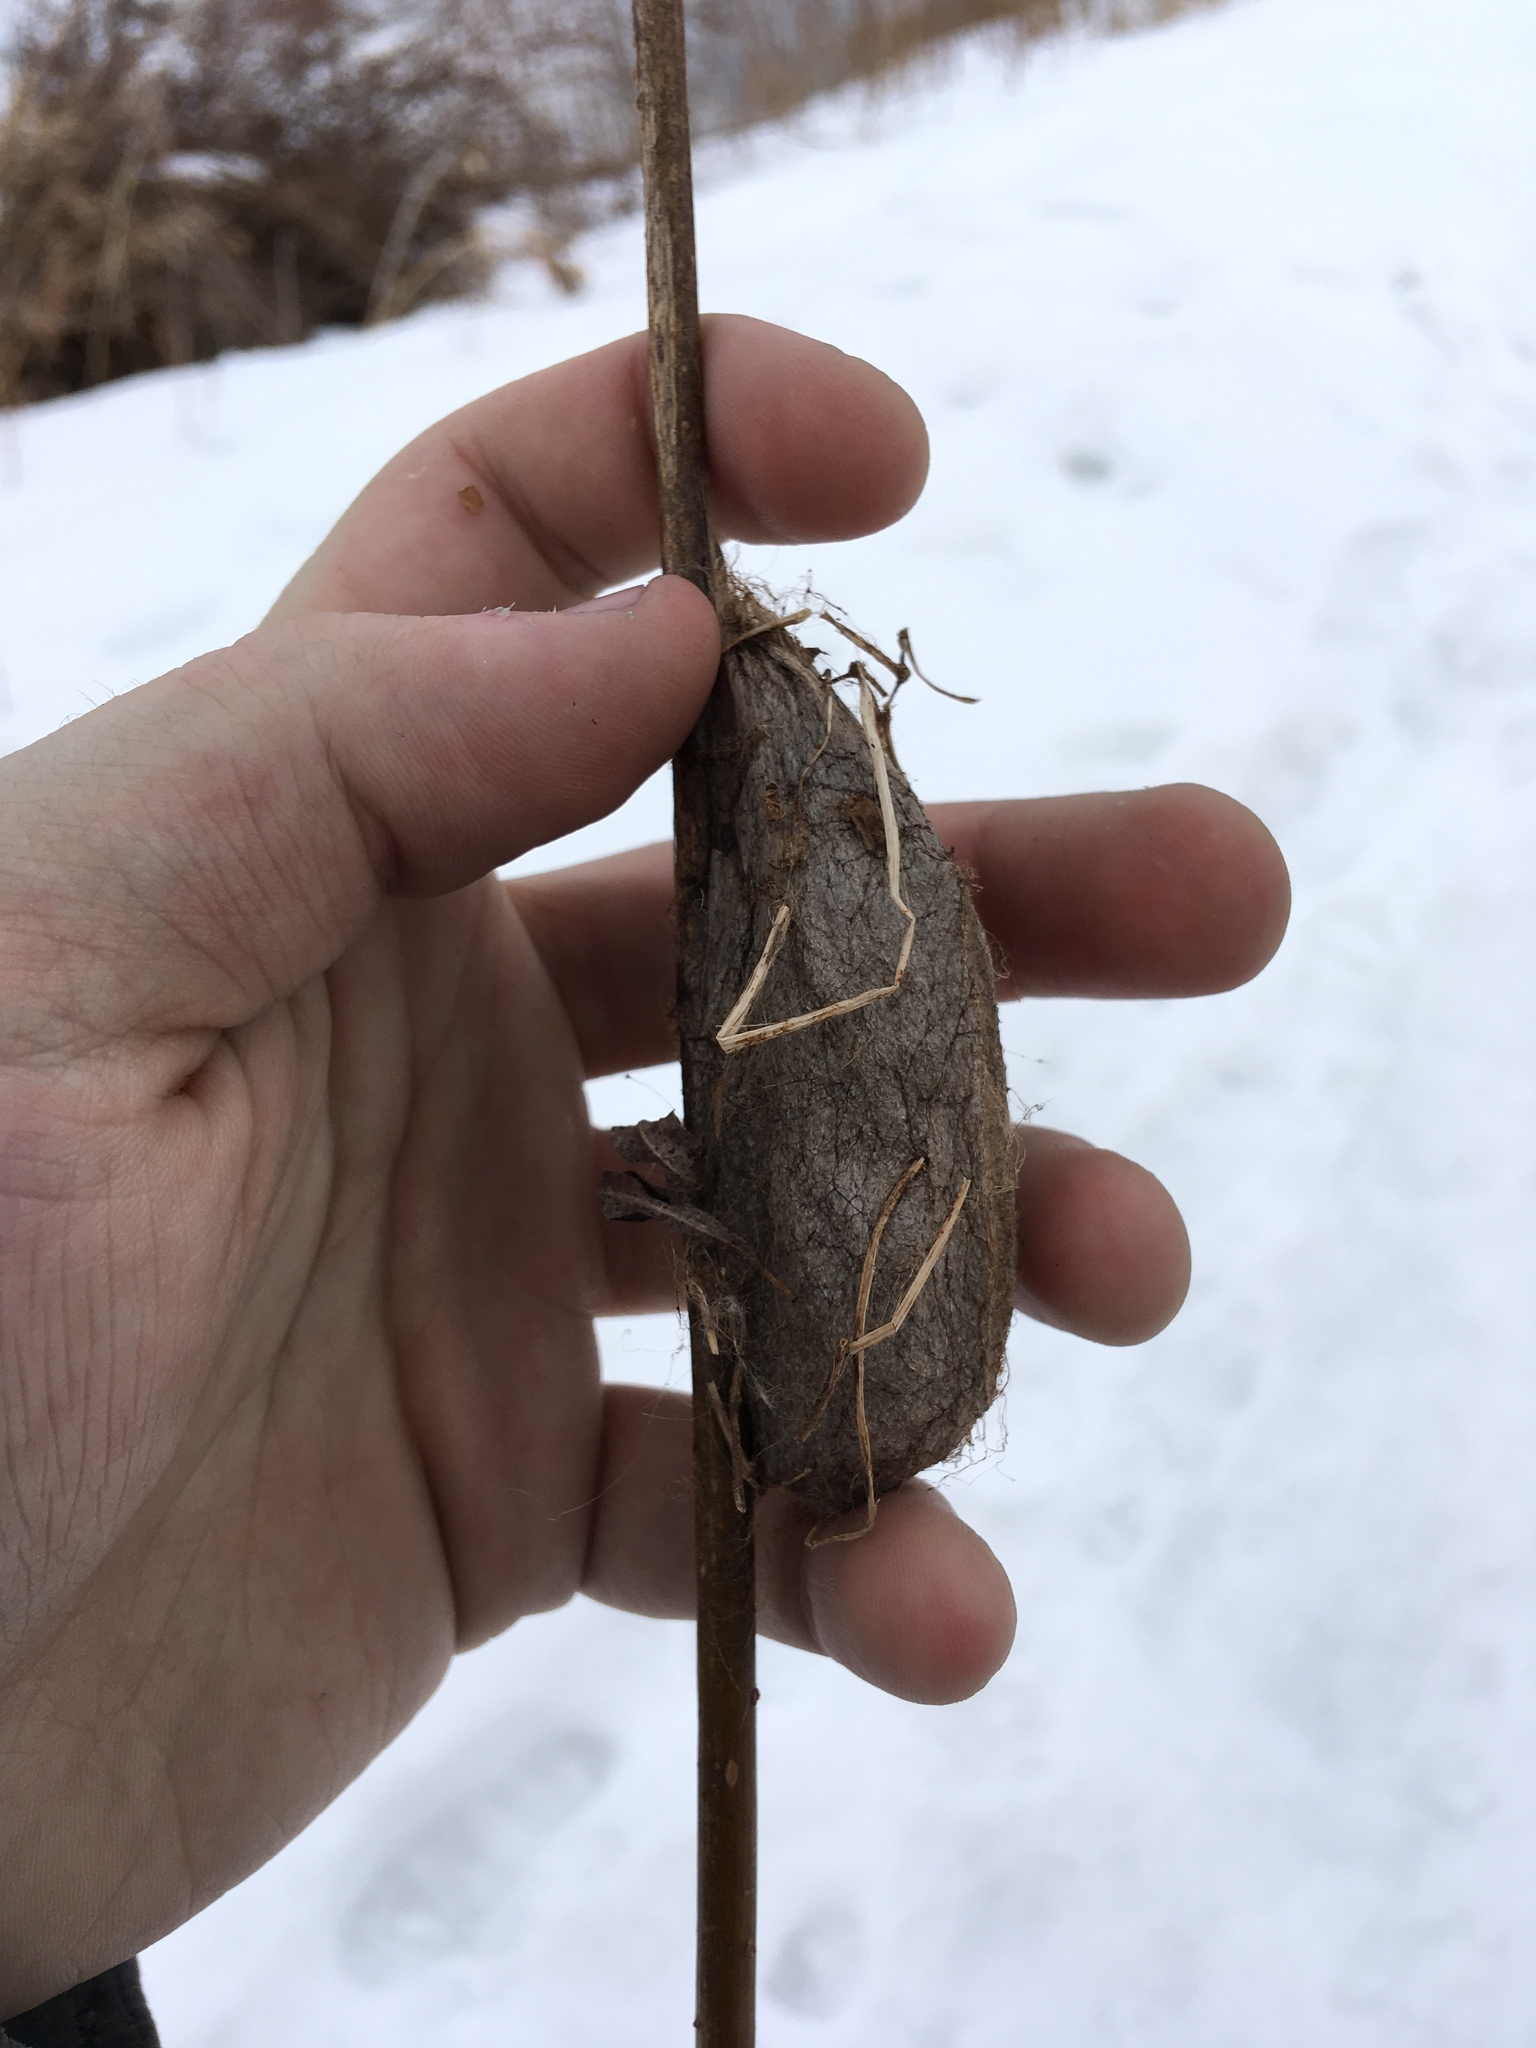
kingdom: Animalia
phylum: Arthropoda
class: Insecta
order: Lepidoptera
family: Saturniidae
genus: Hyalophora
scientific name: Hyalophora cecropia
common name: Cecropia silkmoth
